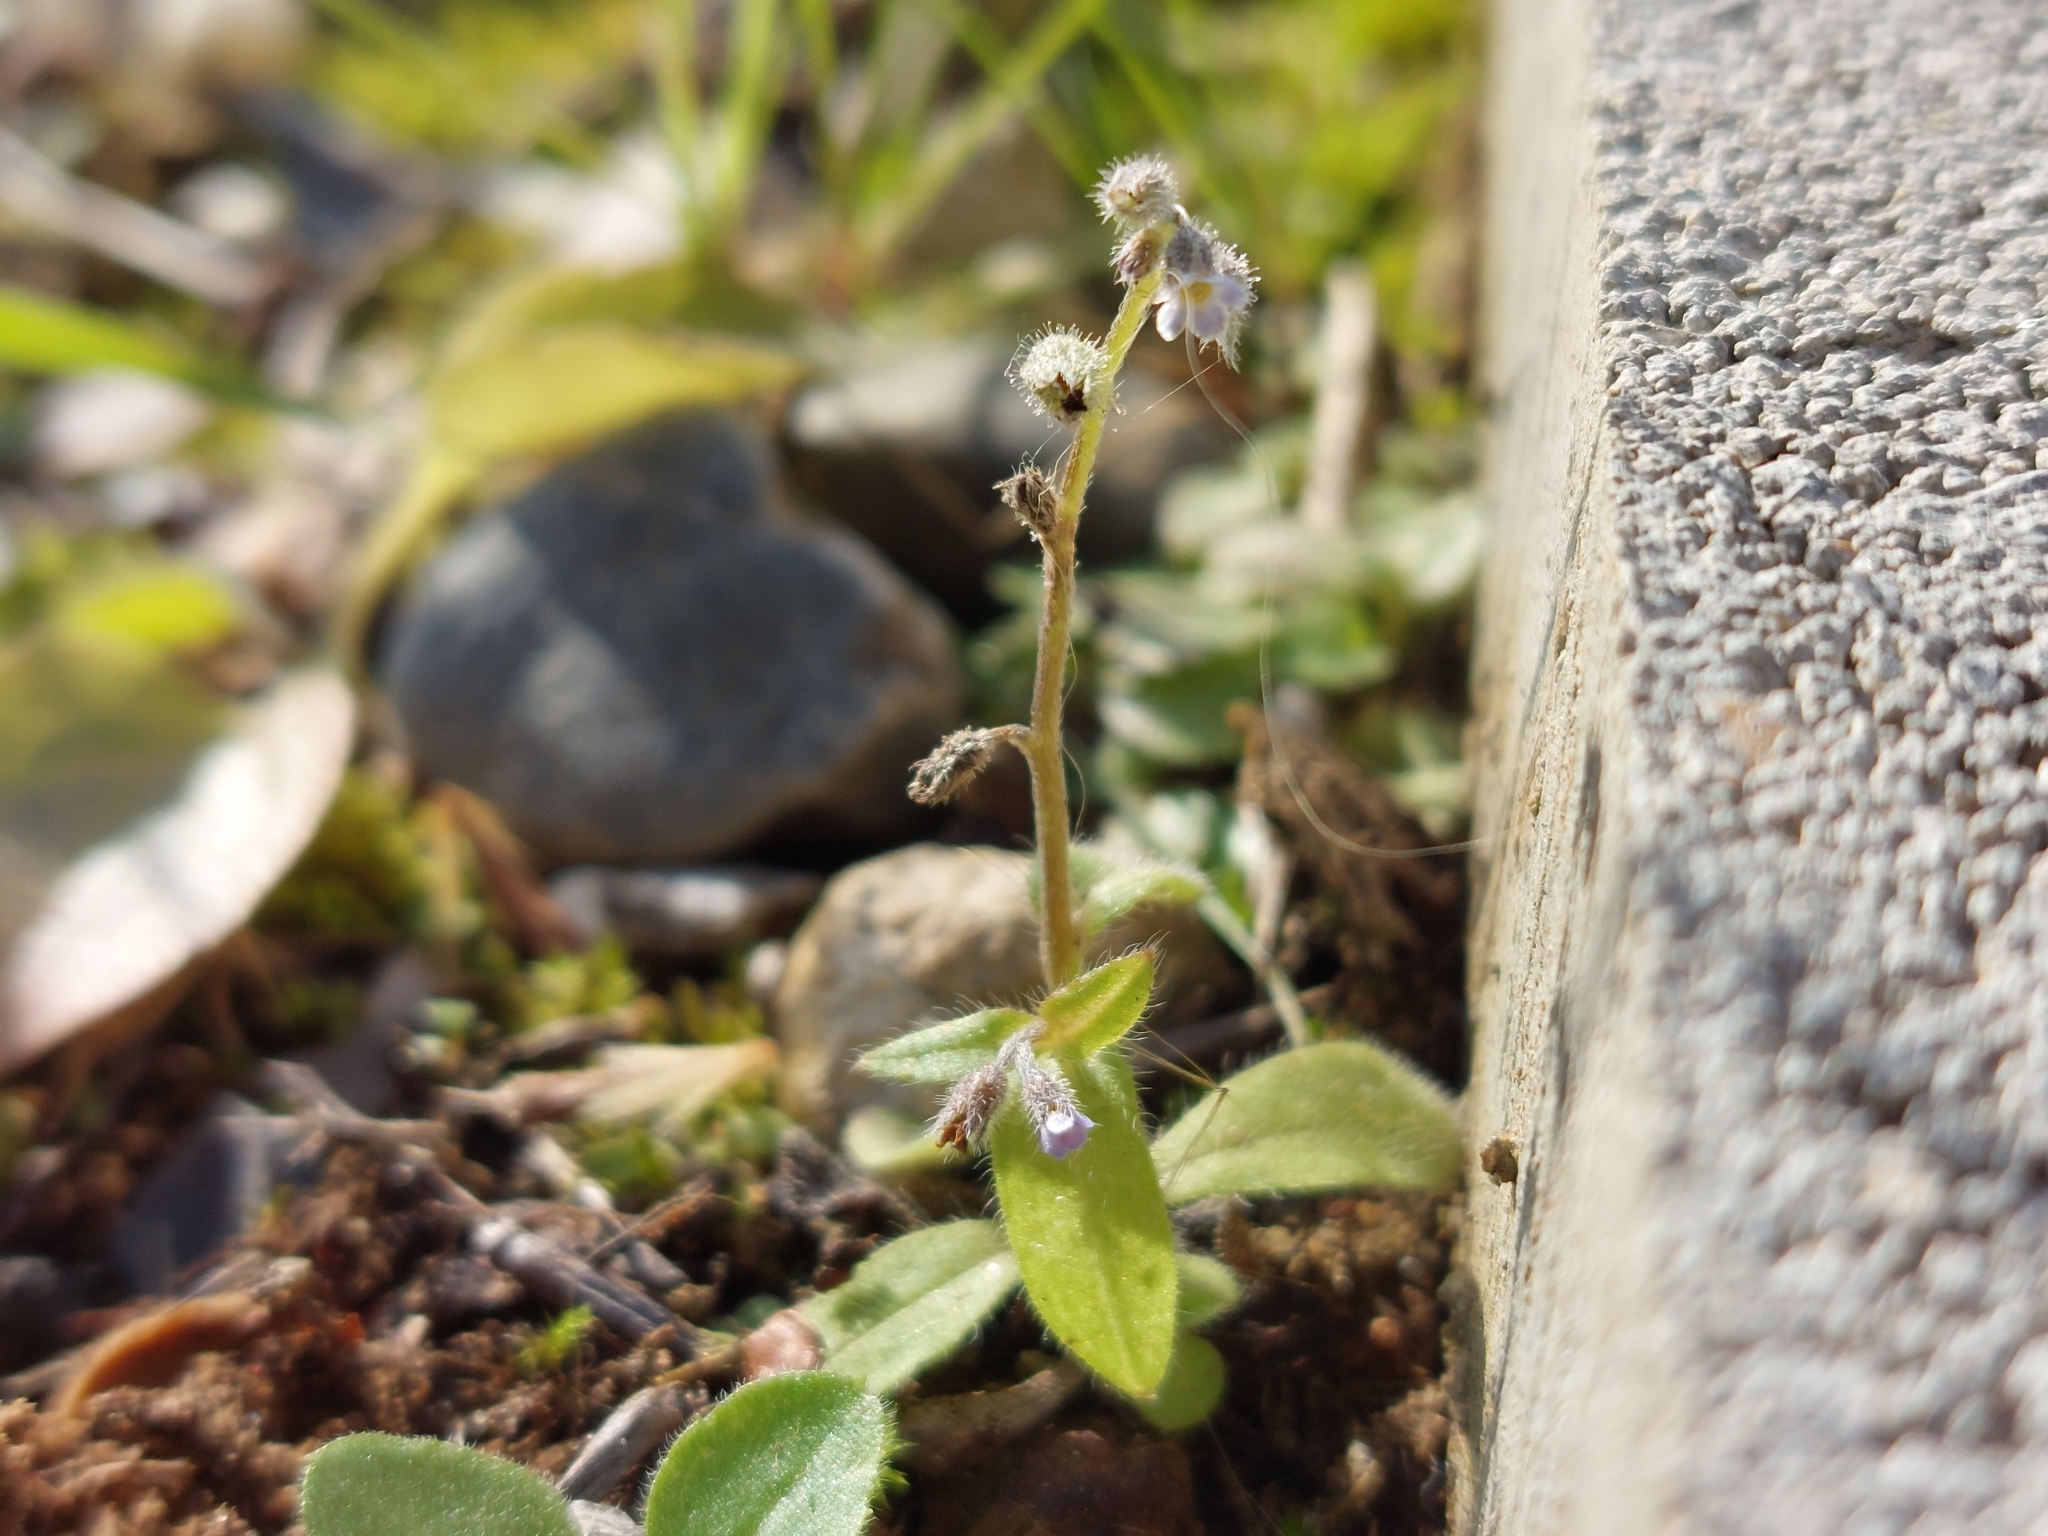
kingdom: Plantae
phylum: Tracheophyta
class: Magnoliopsida
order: Boraginales
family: Boraginaceae
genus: Myosotis
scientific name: Myosotis ramosissima
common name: Early forget-me-not
